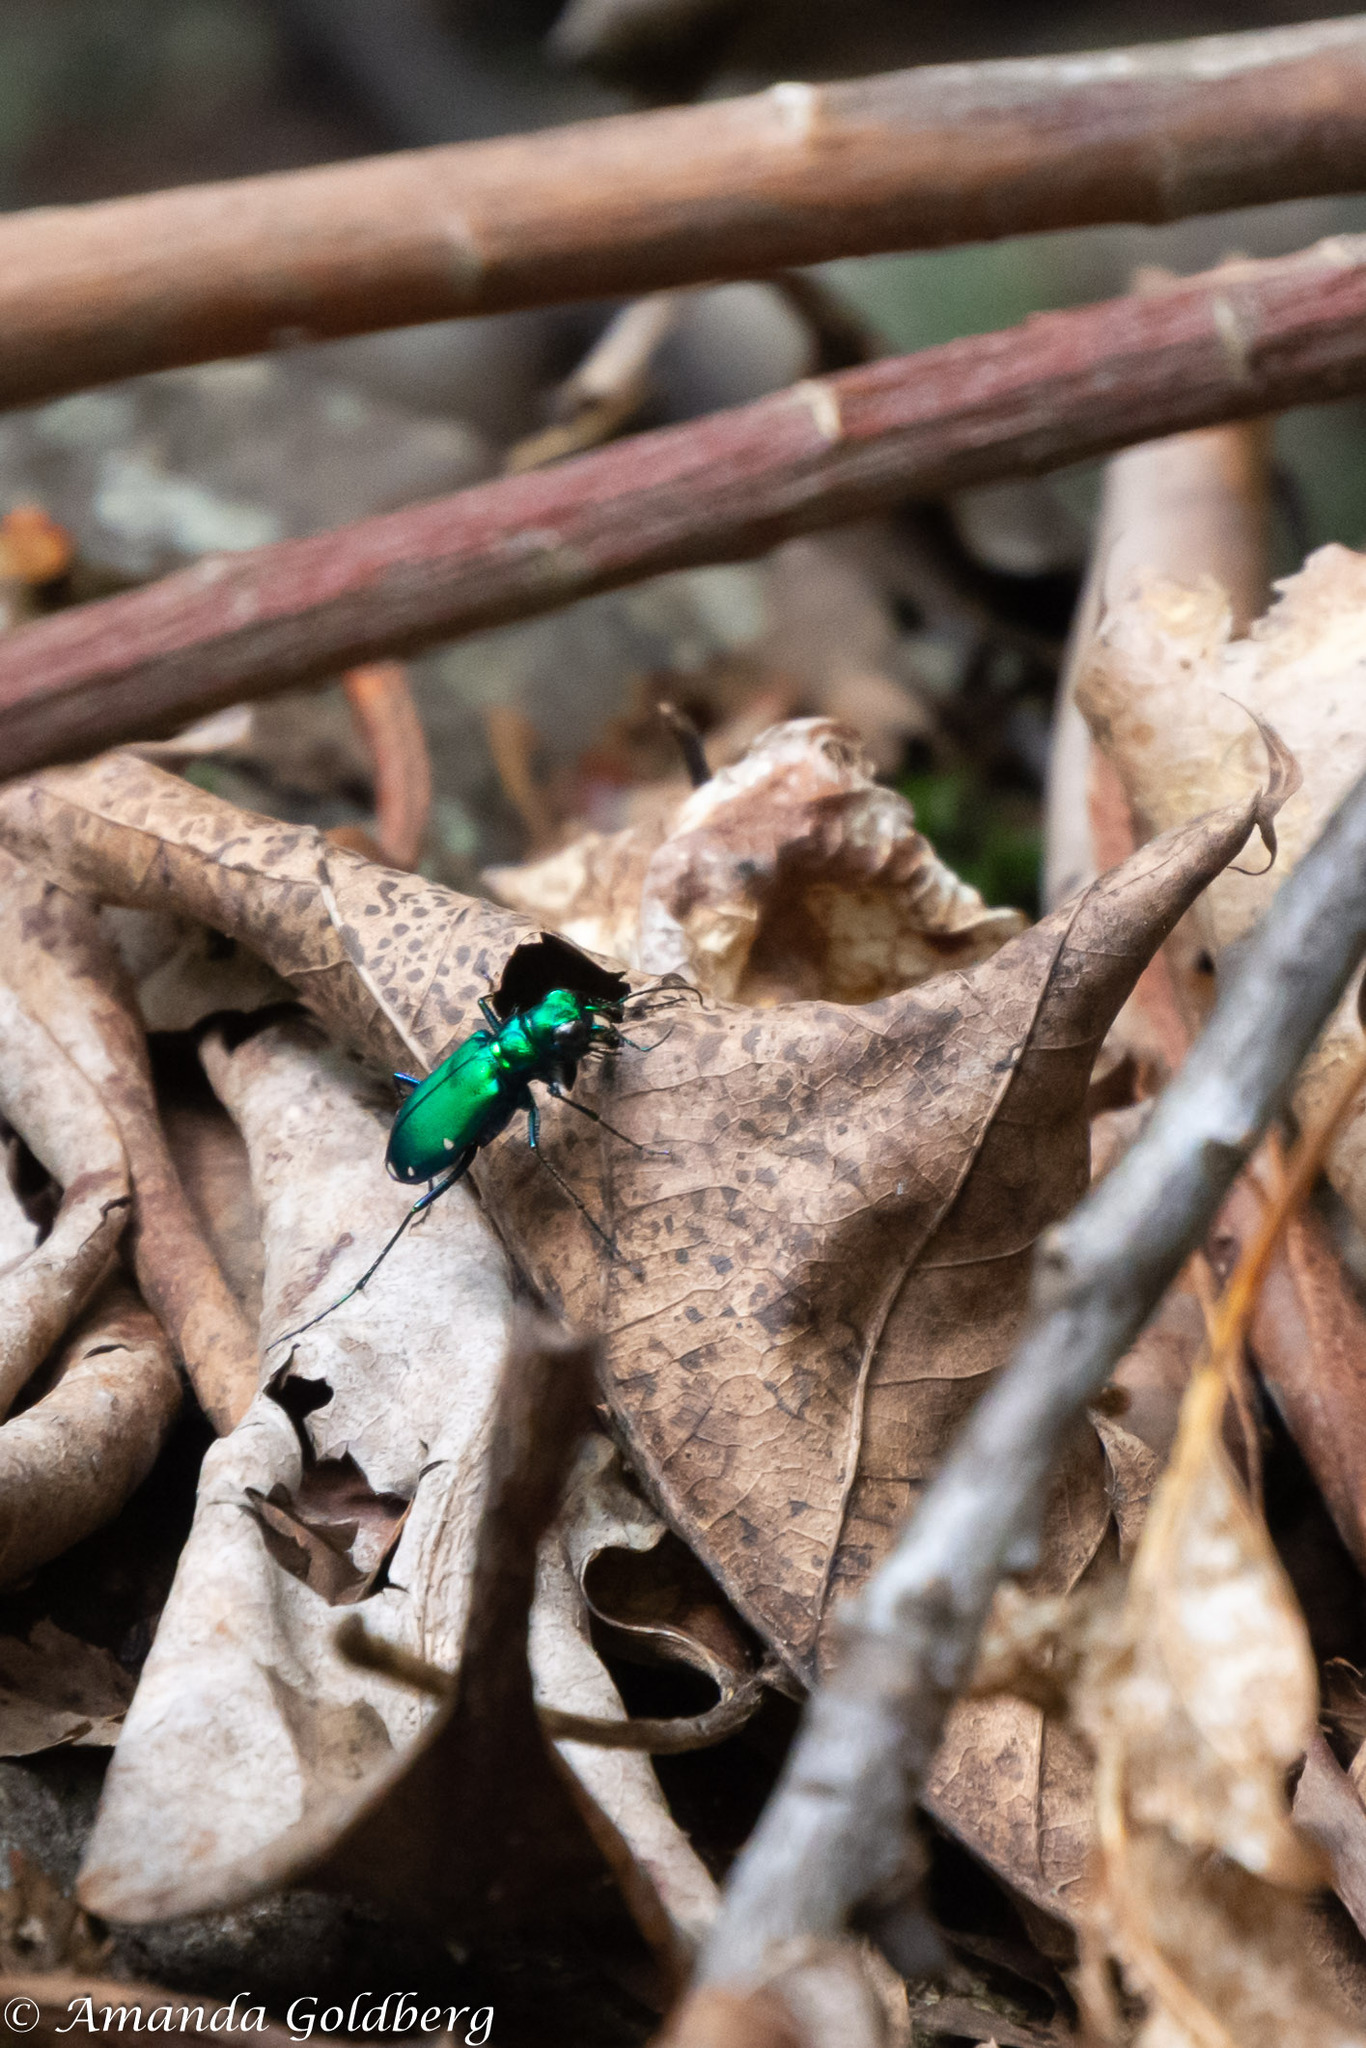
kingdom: Animalia
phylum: Arthropoda
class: Insecta
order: Coleoptera
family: Carabidae
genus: Cicindela
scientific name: Cicindela sexguttata
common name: Six-spotted tiger beetle
